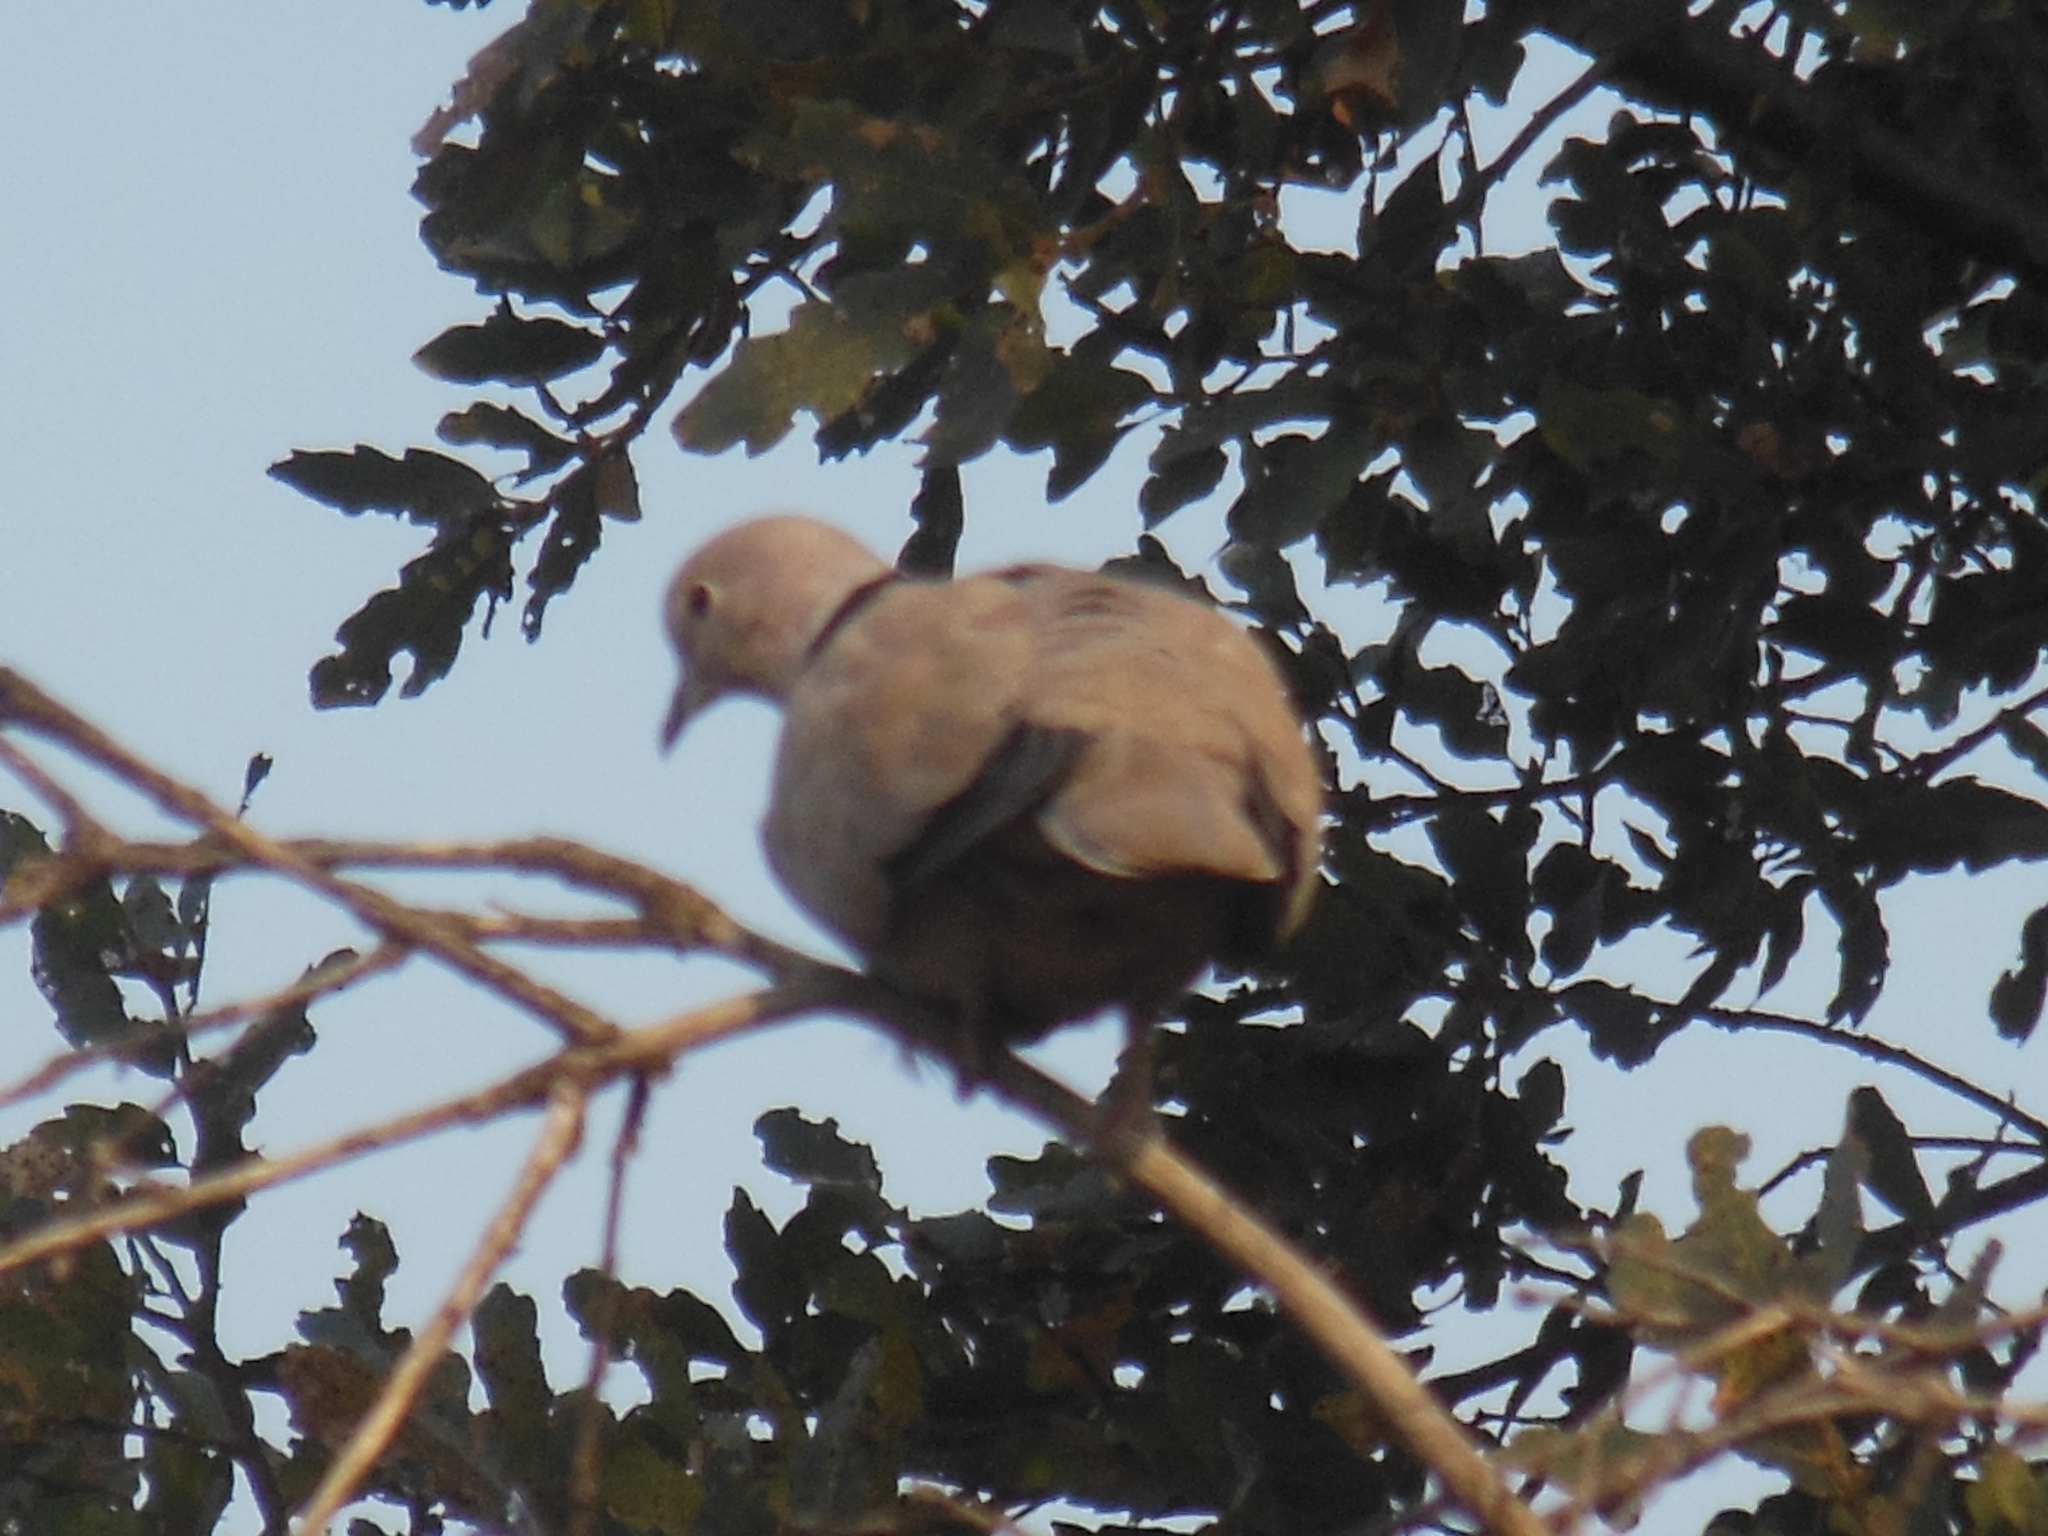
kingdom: Animalia
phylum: Chordata
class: Aves
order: Columbiformes
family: Columbidae
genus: Streptopelia
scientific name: Streptopelia decaocto
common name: Eurasian collared dove
